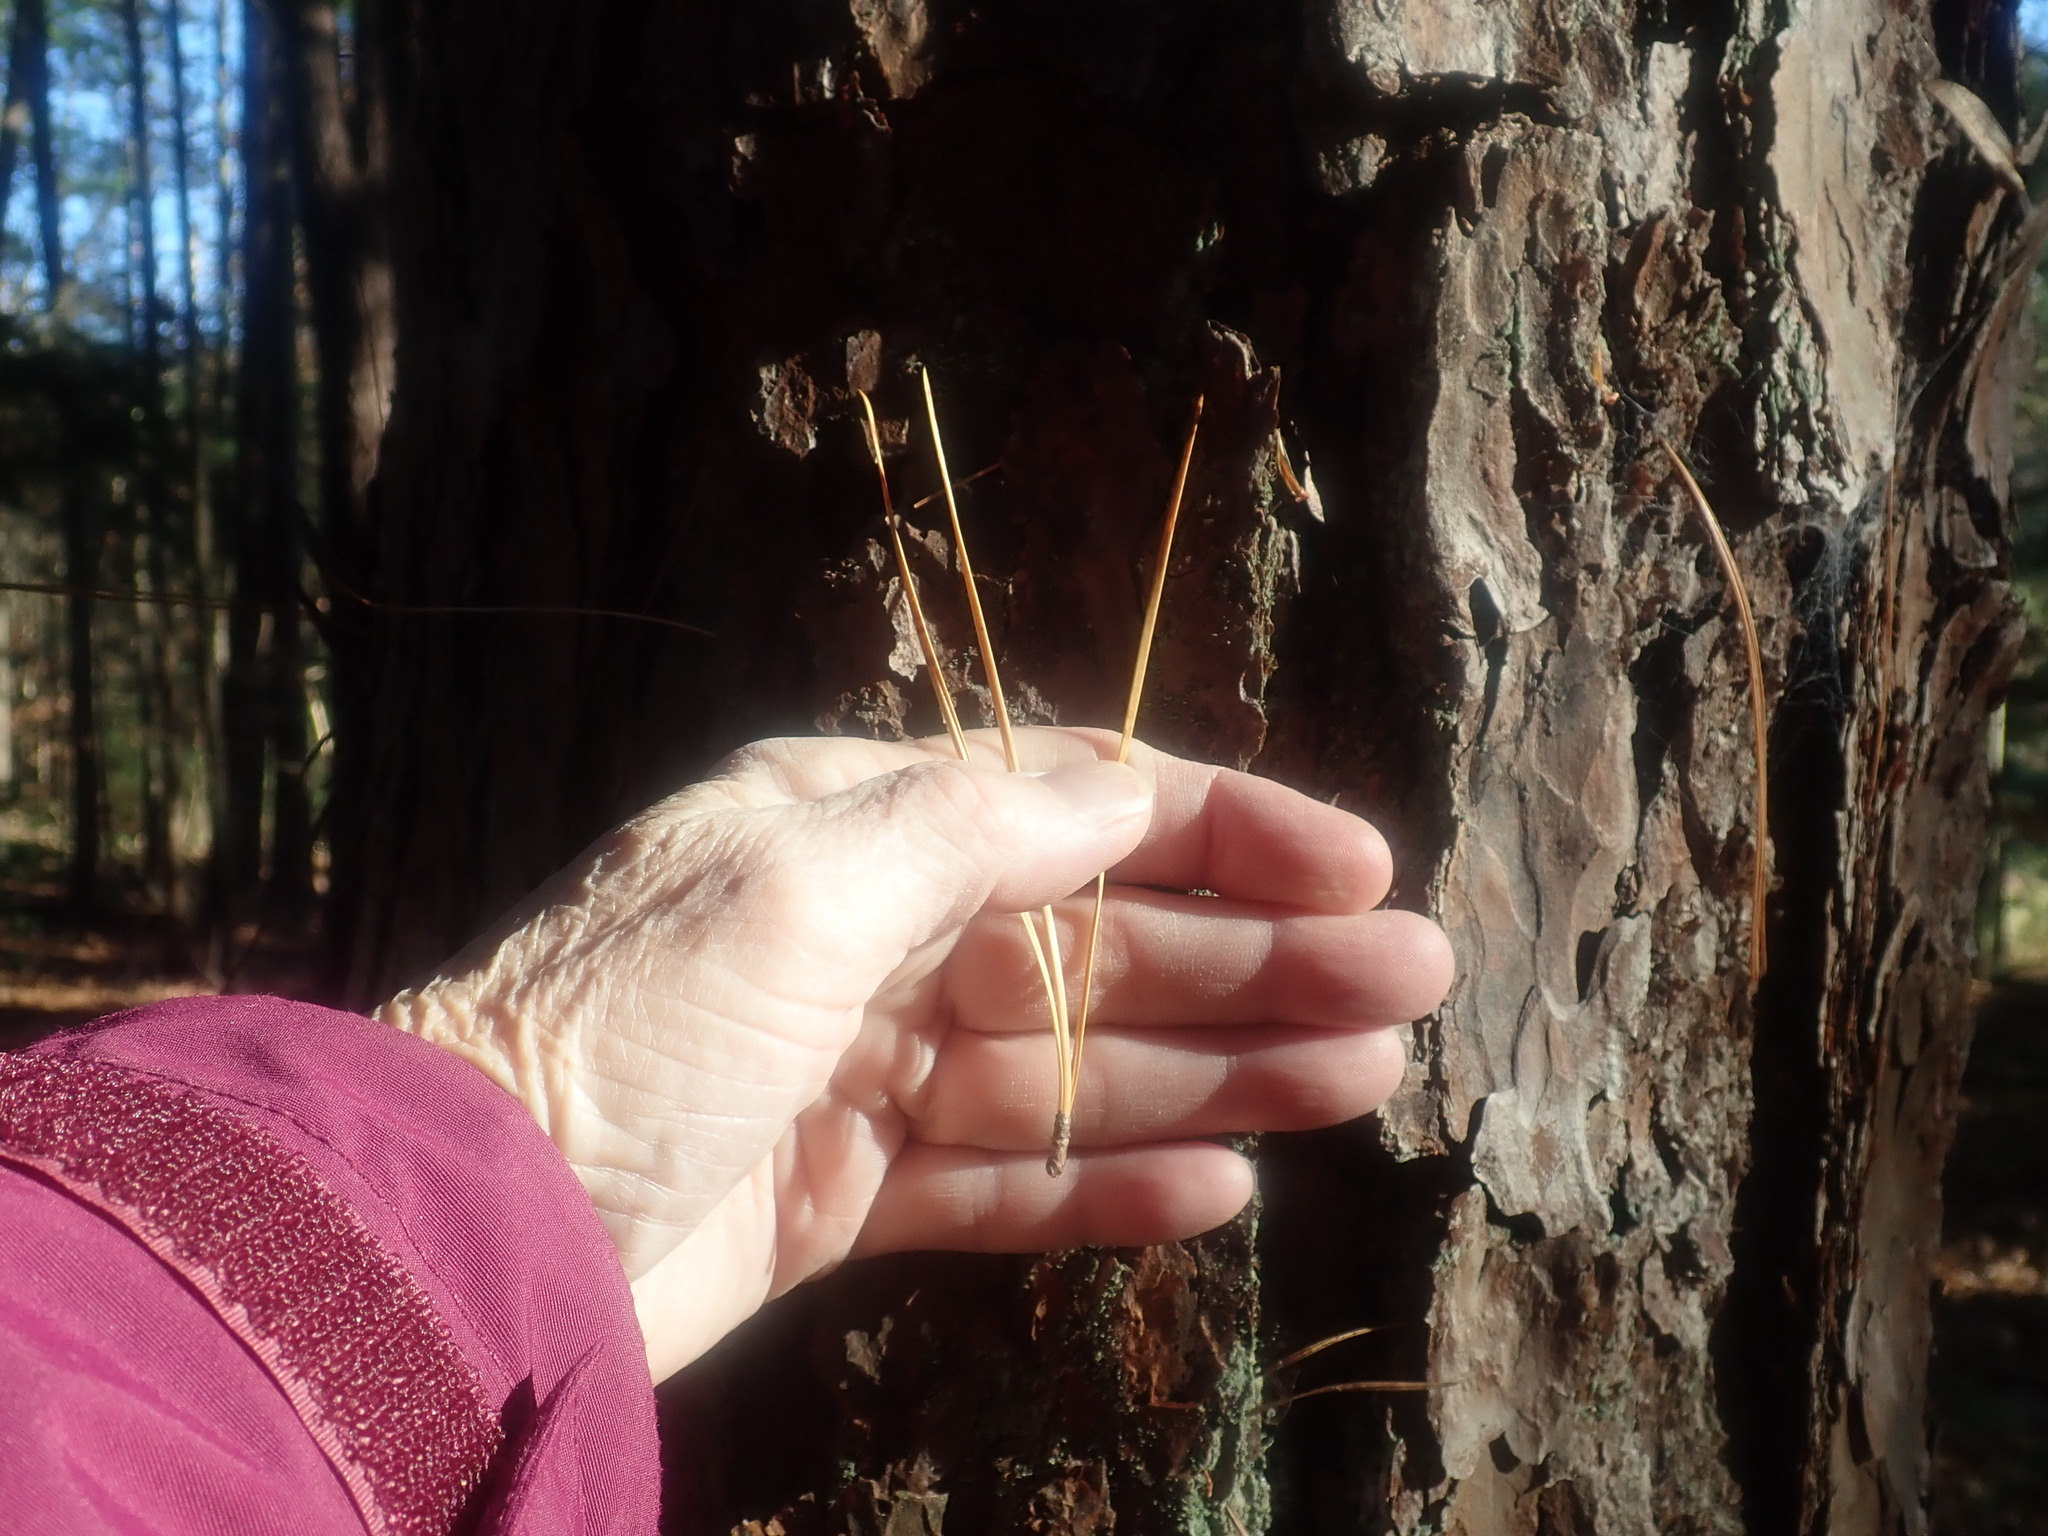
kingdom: Plantae
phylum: Tracheophyta
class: Pinopsida
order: Pinales
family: Pinaceae
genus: Pinus
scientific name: Pinus rigida
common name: Pitch pine
